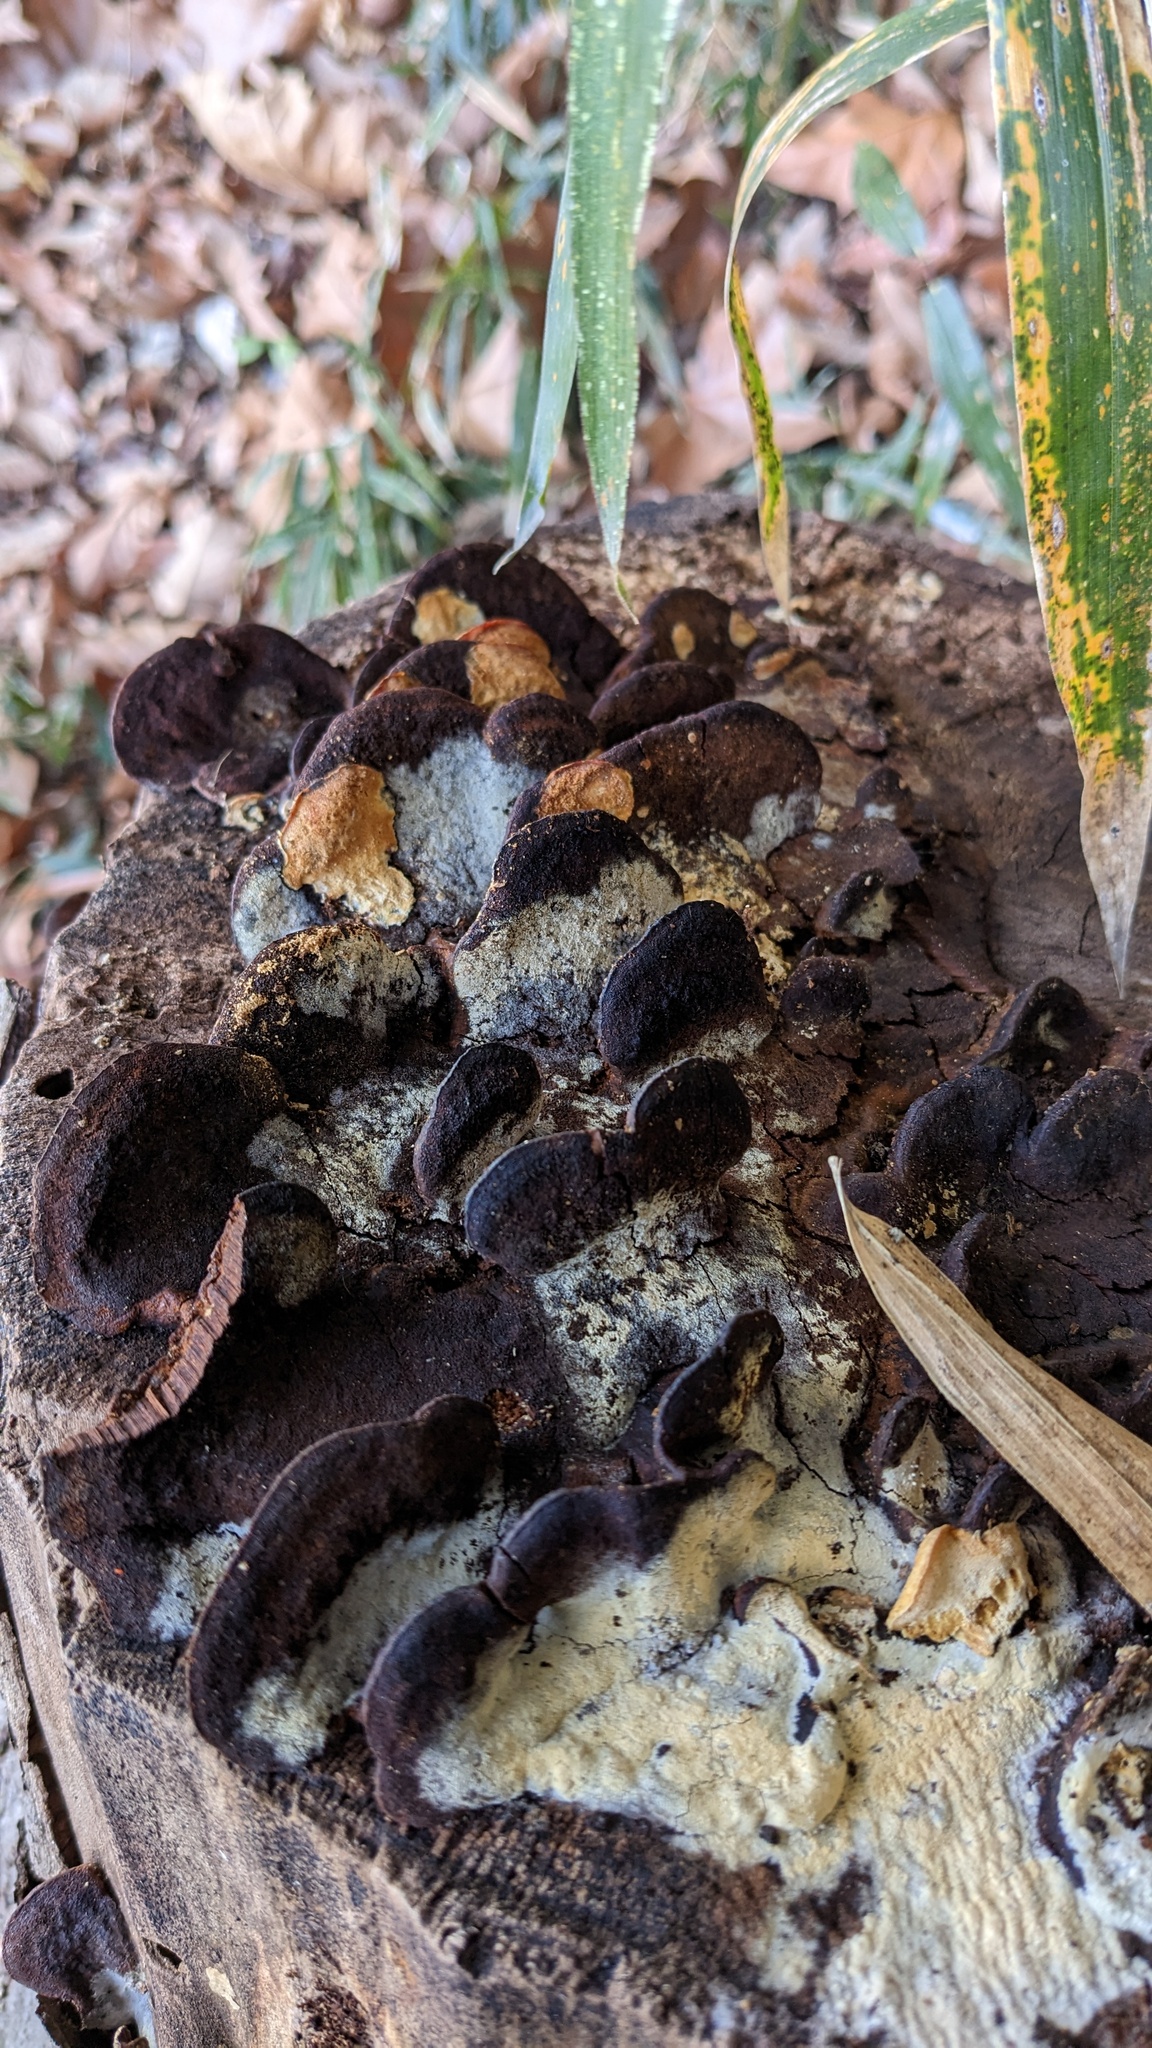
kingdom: Fungi
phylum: Basidiomycota
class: Agaricomycetes
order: Hymenochaetales
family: Hymenochaetaceae
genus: Phellinus
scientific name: Phellinus gilvus
